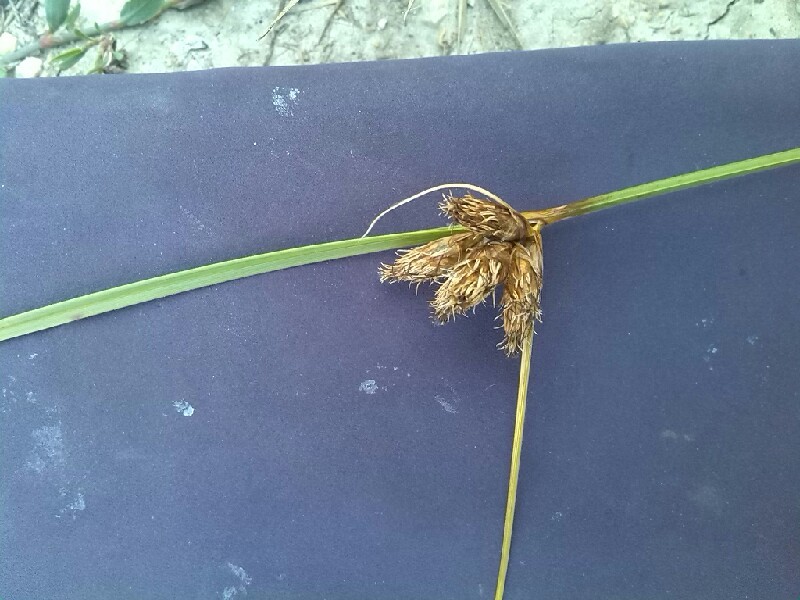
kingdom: Plantae
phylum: Tracheophyta
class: Liliopsida
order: Poales
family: Cyperaceae
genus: Bolboschoenus
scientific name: Bolboschoenus maritimus
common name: Sea club-rush
